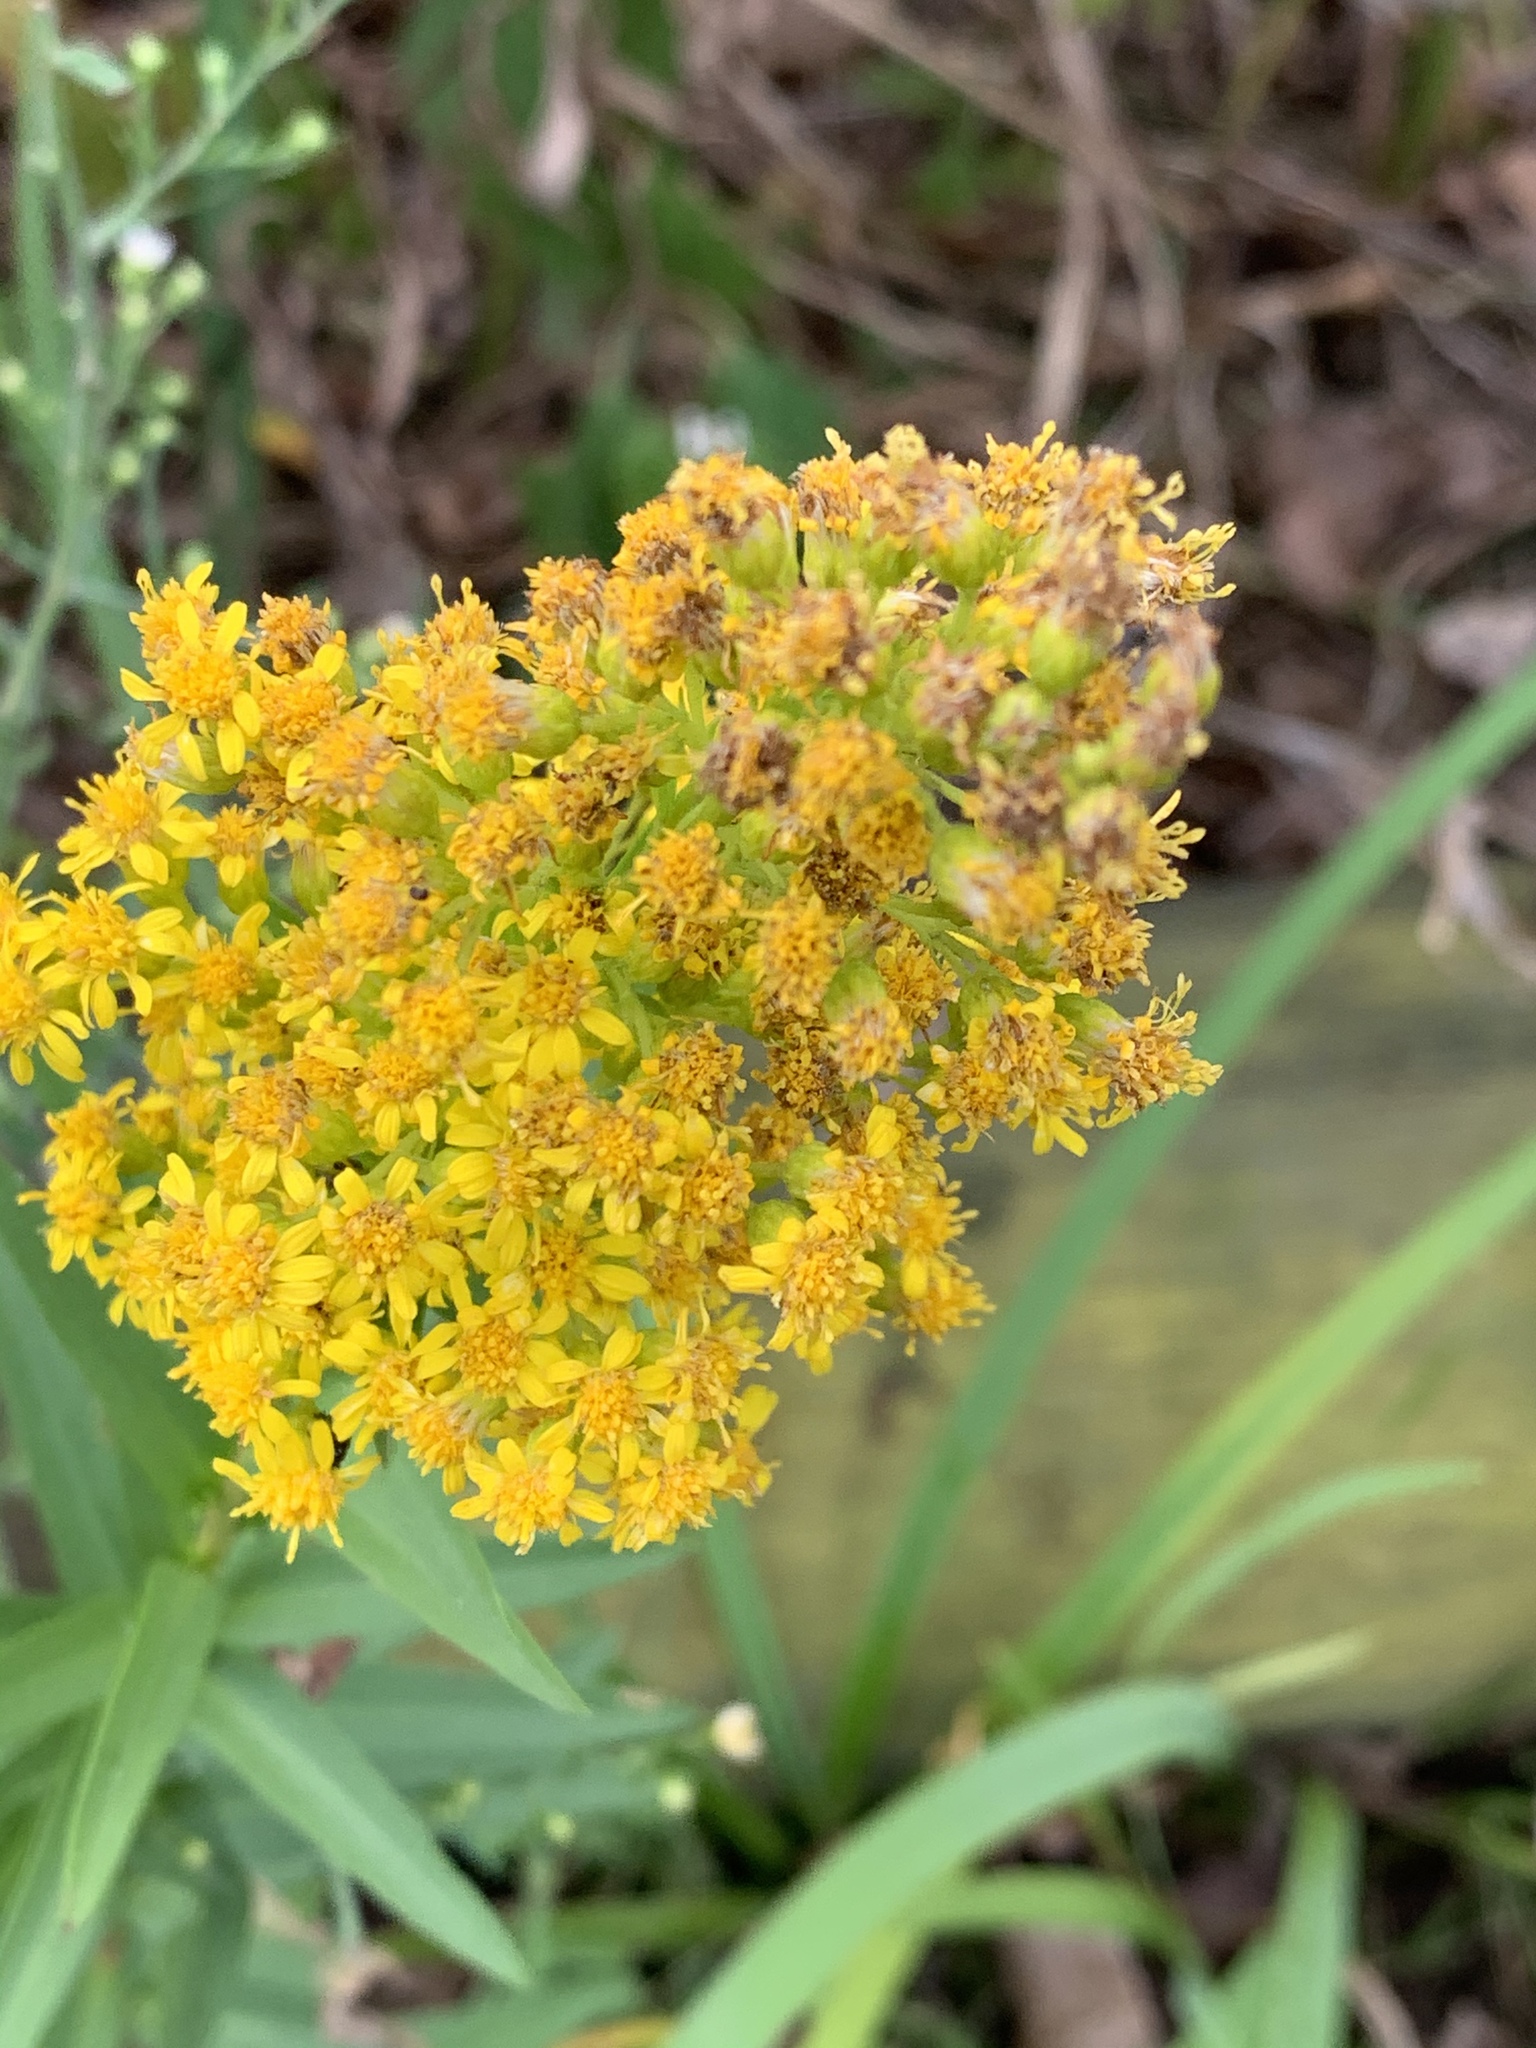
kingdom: Plantae
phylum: Tracheophyta
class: Magnoliopsida
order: Asterales
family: Asteraceae
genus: Solidago
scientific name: Solidago sempervirens
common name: Salt-marsh goldenrod
